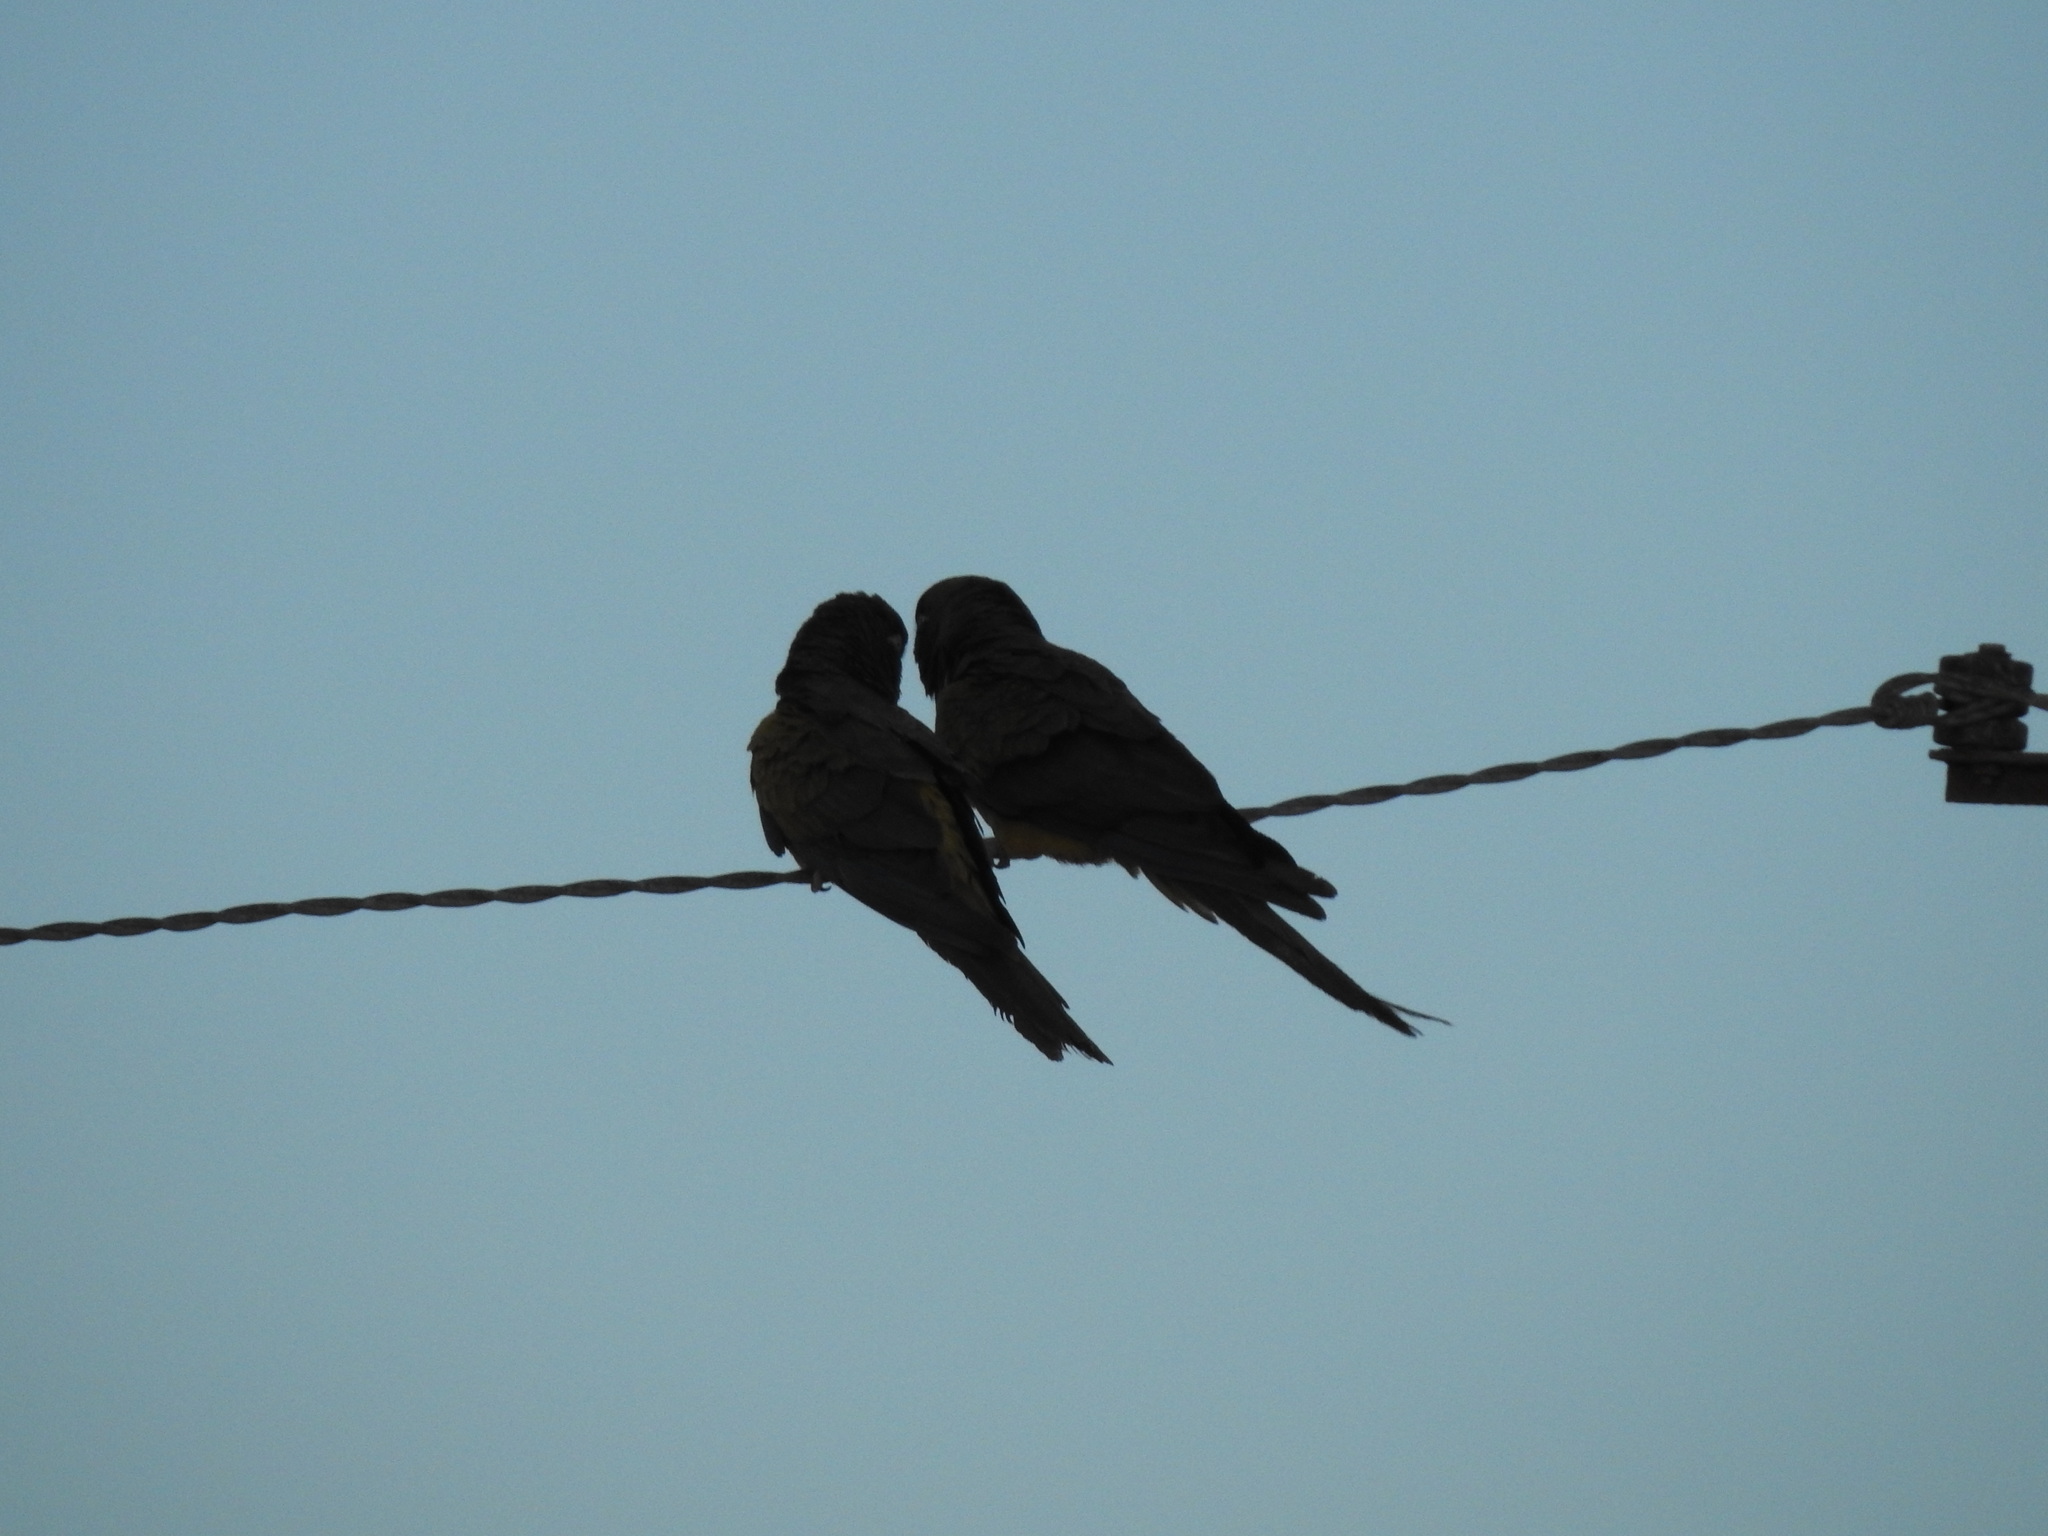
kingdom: Animalia
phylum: Chordata
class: Aves
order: Psittaciformes
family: Psittacidae
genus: Cyanoliseus
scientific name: Cyanoliseus patagonus
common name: Burrowing parrot
